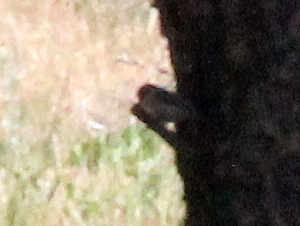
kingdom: Animalia
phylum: Chordata
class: Aves
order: Passeriformes
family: Sittidae
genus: Sitta
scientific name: Sitta pygmaea
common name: Pygmy nuthatch
